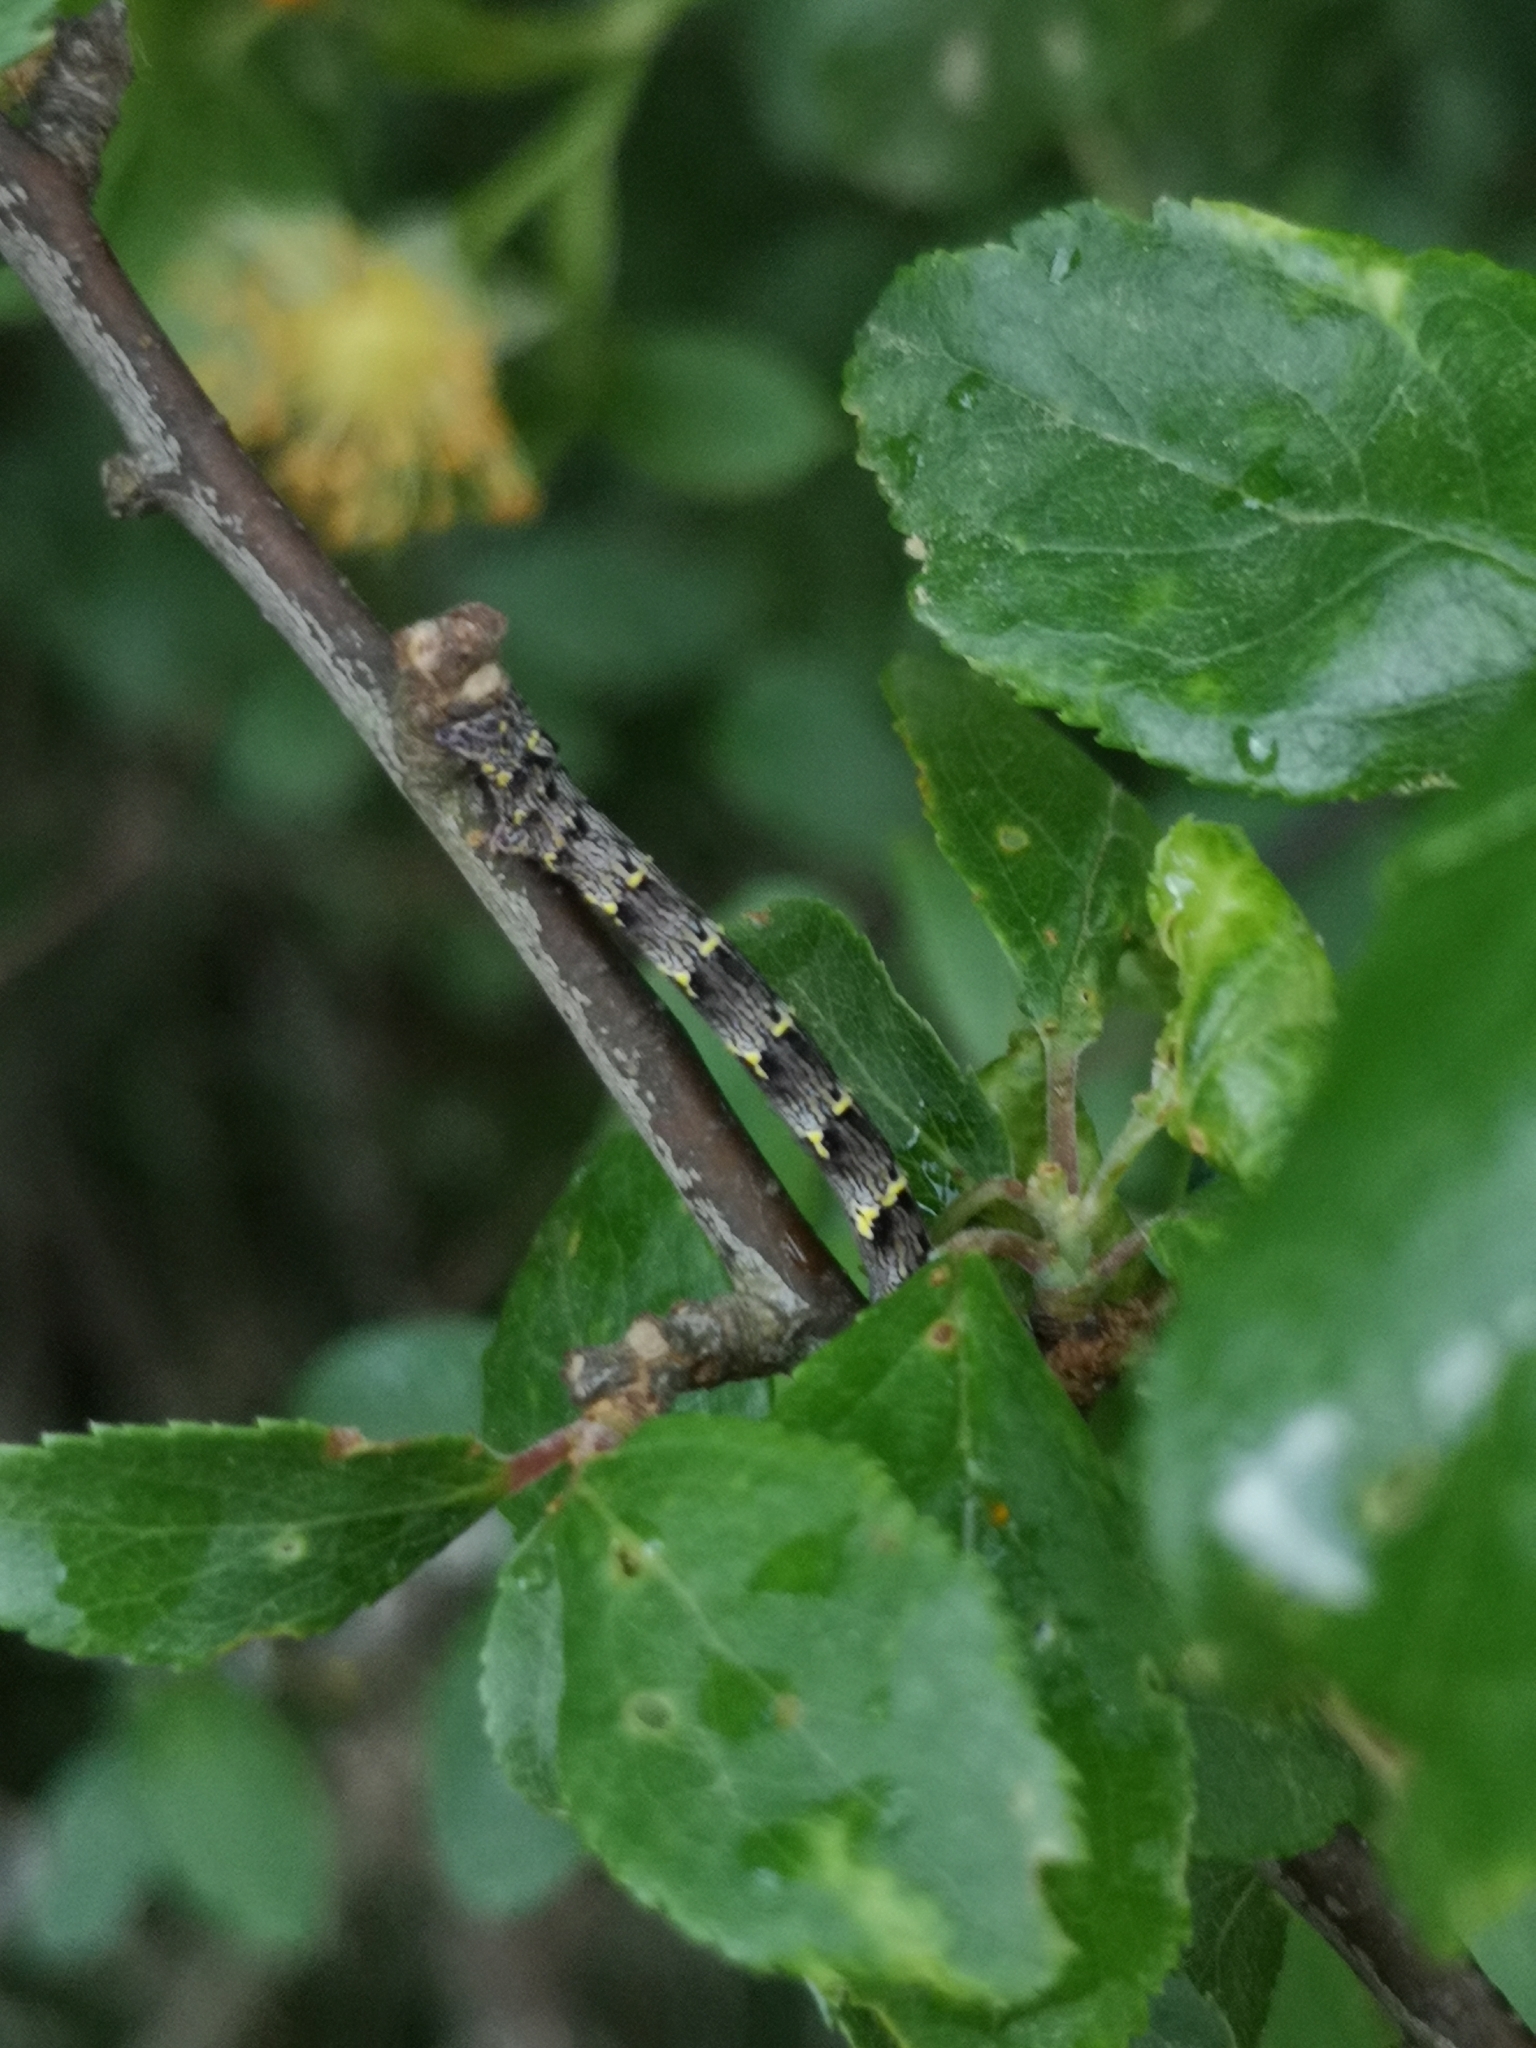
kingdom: Animalia
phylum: Arthropoda
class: Insecta
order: Lepidoptera
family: Geometridae
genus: Lycia
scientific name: Lycia hirtaria
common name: Brindled beauty
